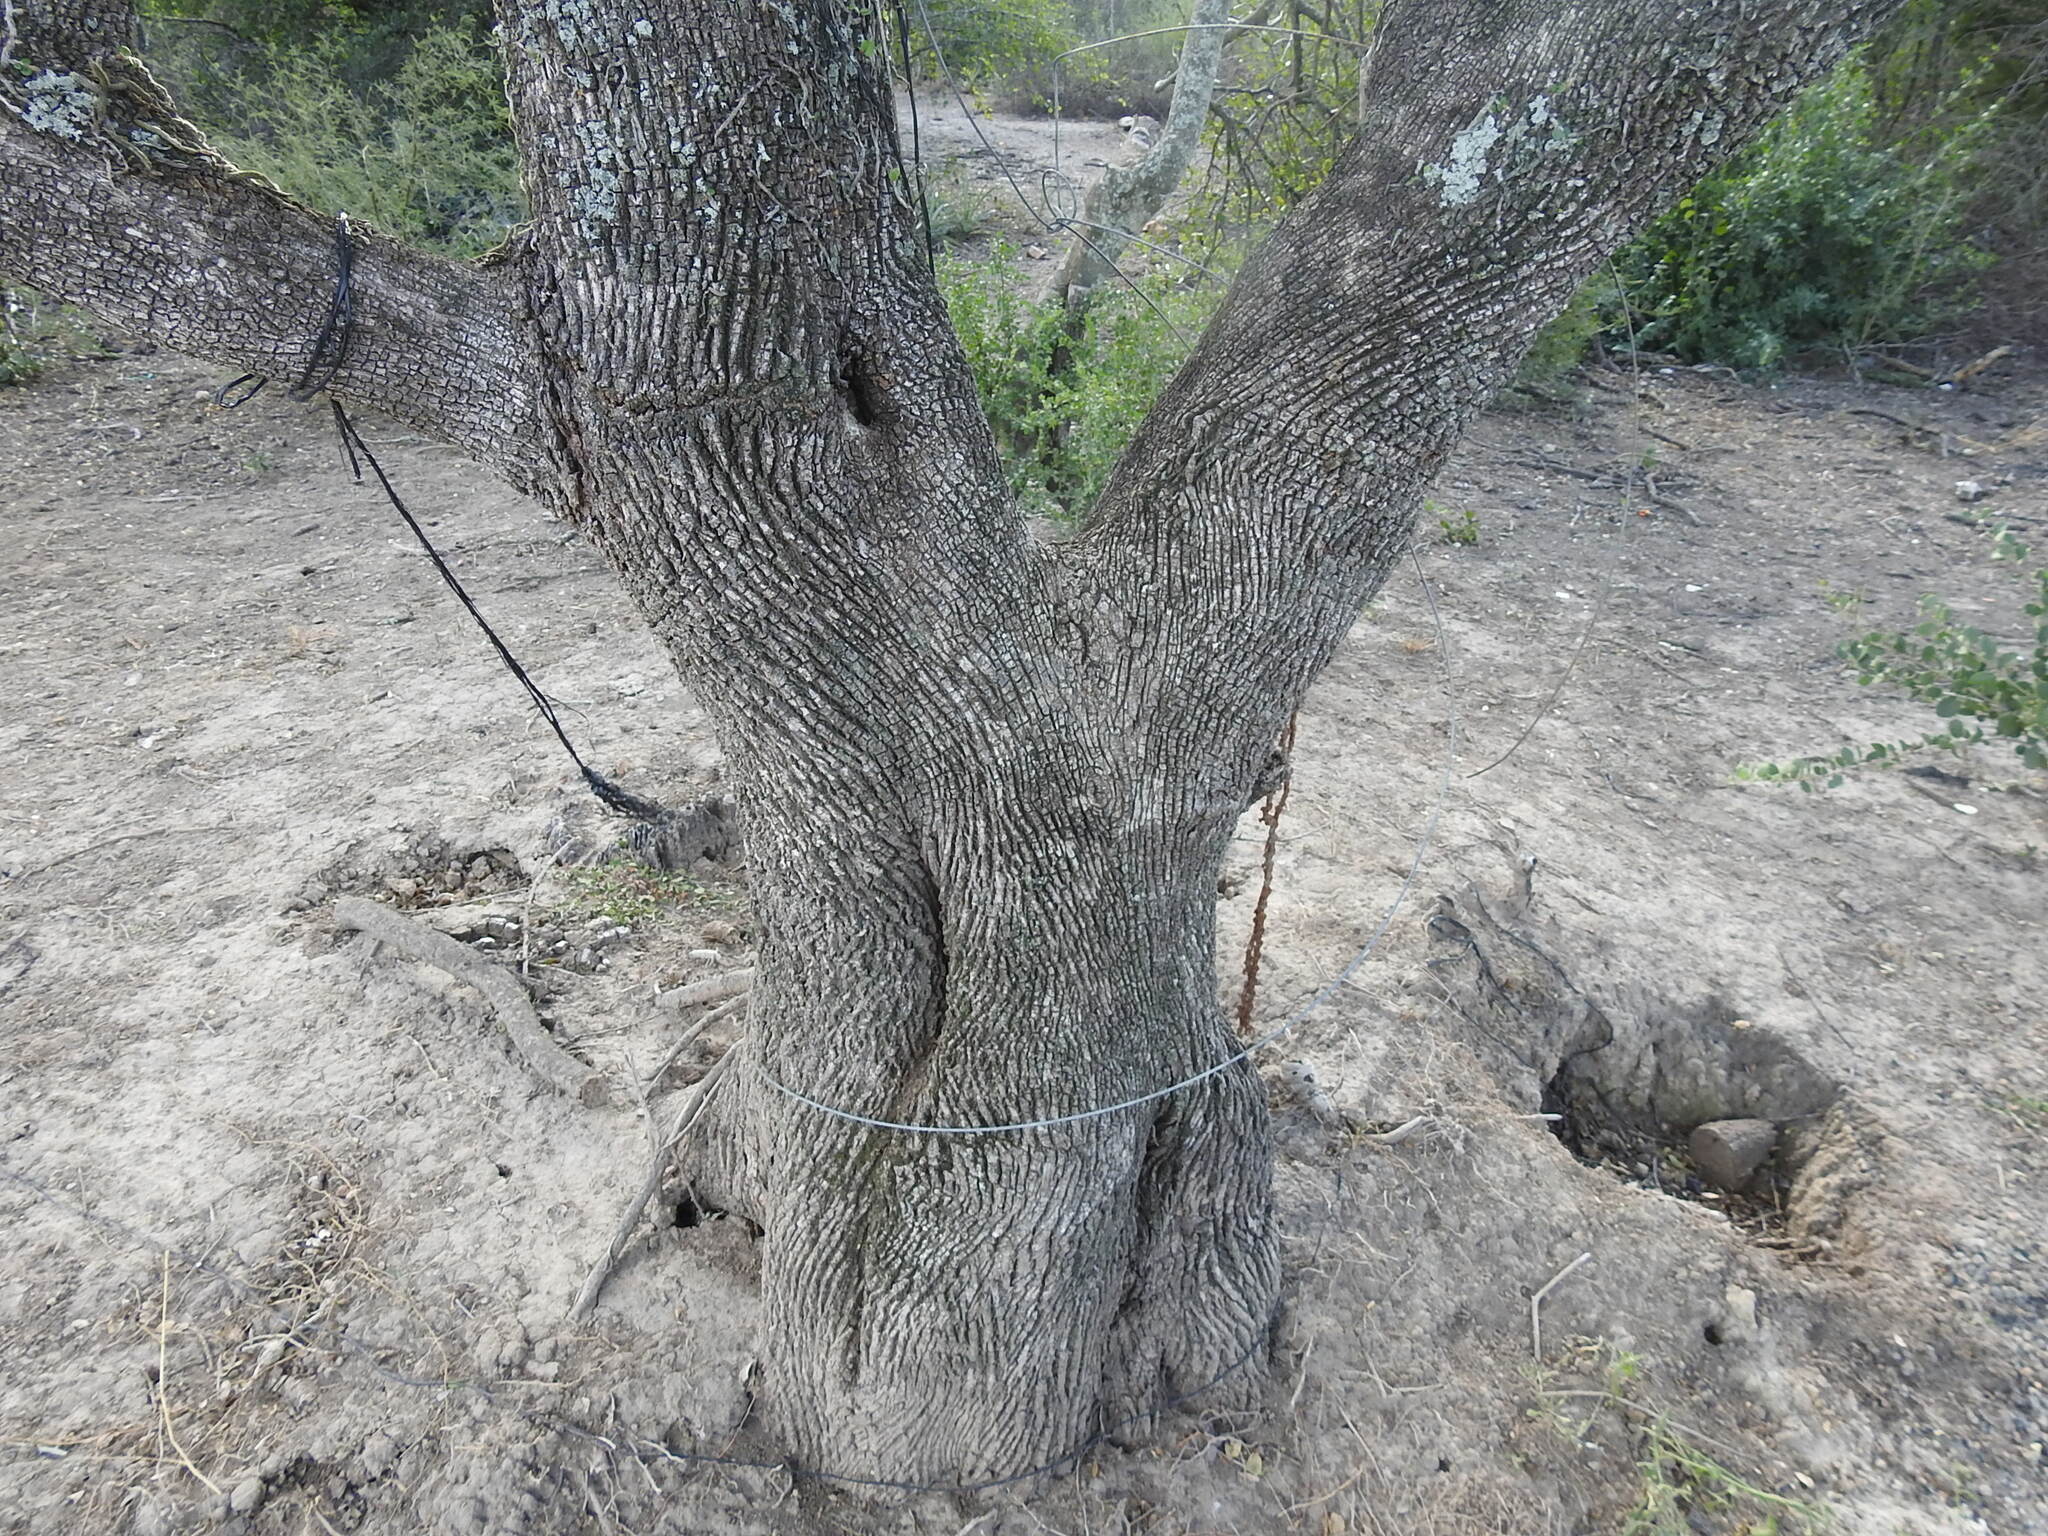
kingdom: Plantae
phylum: Tracheophyta
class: Magnoliopsida
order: Ericales
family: Sapotaceae
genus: Sideroxylon
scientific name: Sideroxylon obtusifolium
